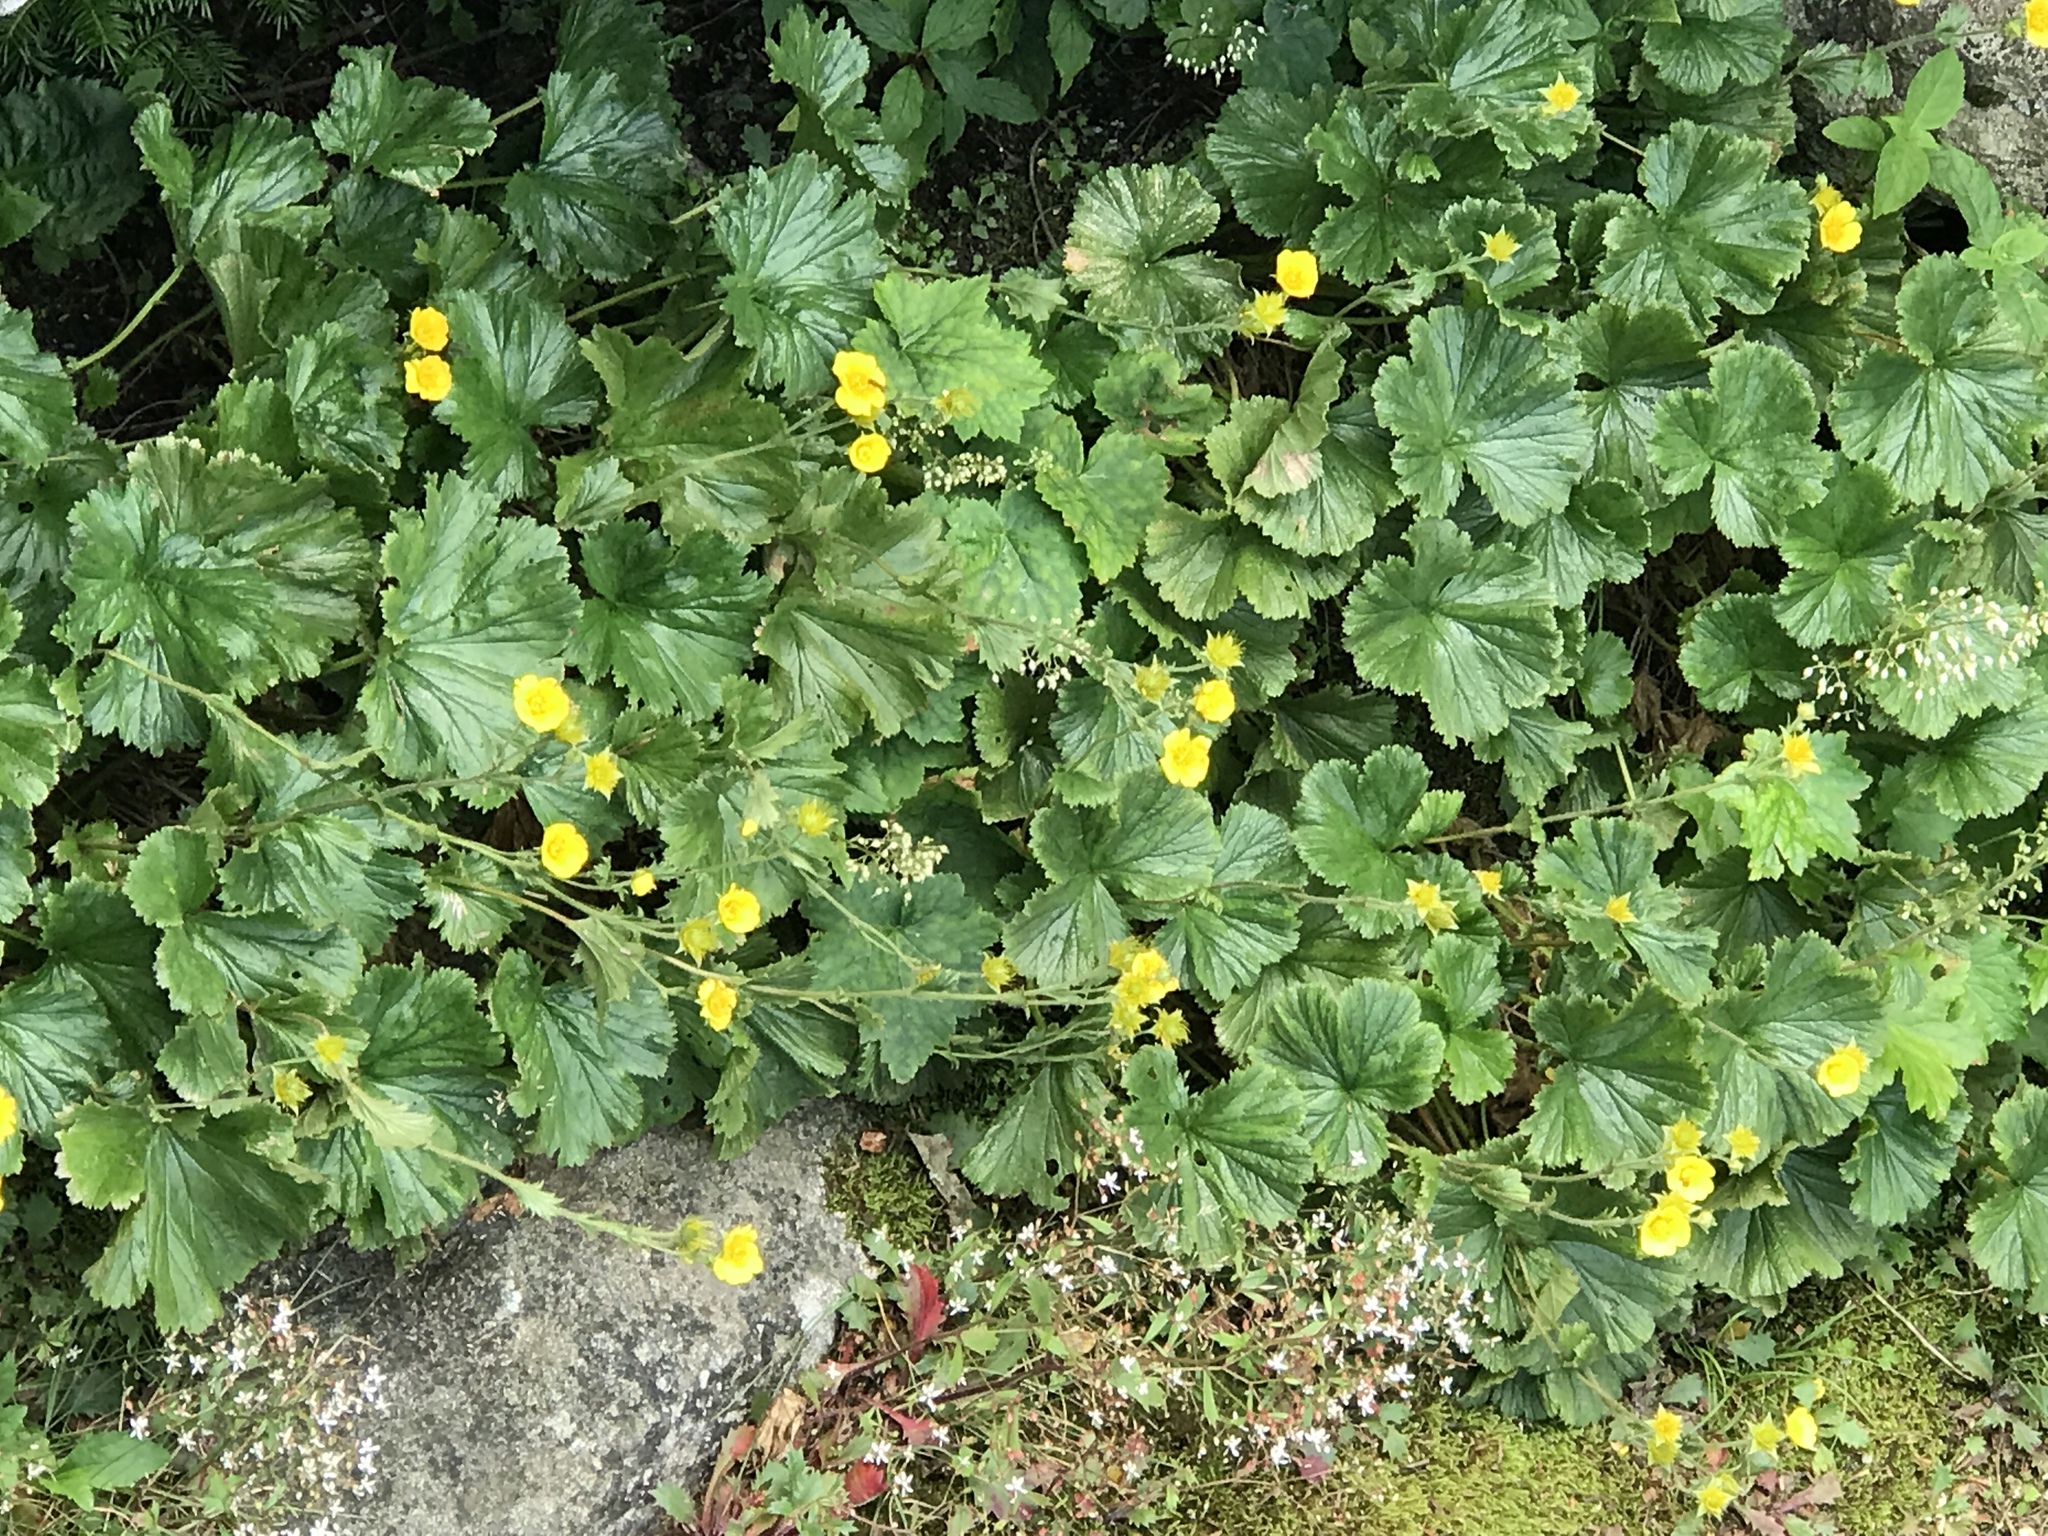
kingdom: Plantae
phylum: Tracheophyta
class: Magnoliopsida
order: Rosales
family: Rosaceae
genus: Geum
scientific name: Geum radiatum
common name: Spreaded avens
